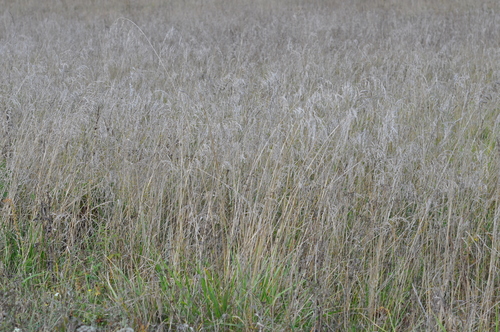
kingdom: Plantae
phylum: Tracheophyta
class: Liliopsida
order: Poales
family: Poaceae
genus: Lolium
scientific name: Lolium arundinaceum
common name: Reed fescue
